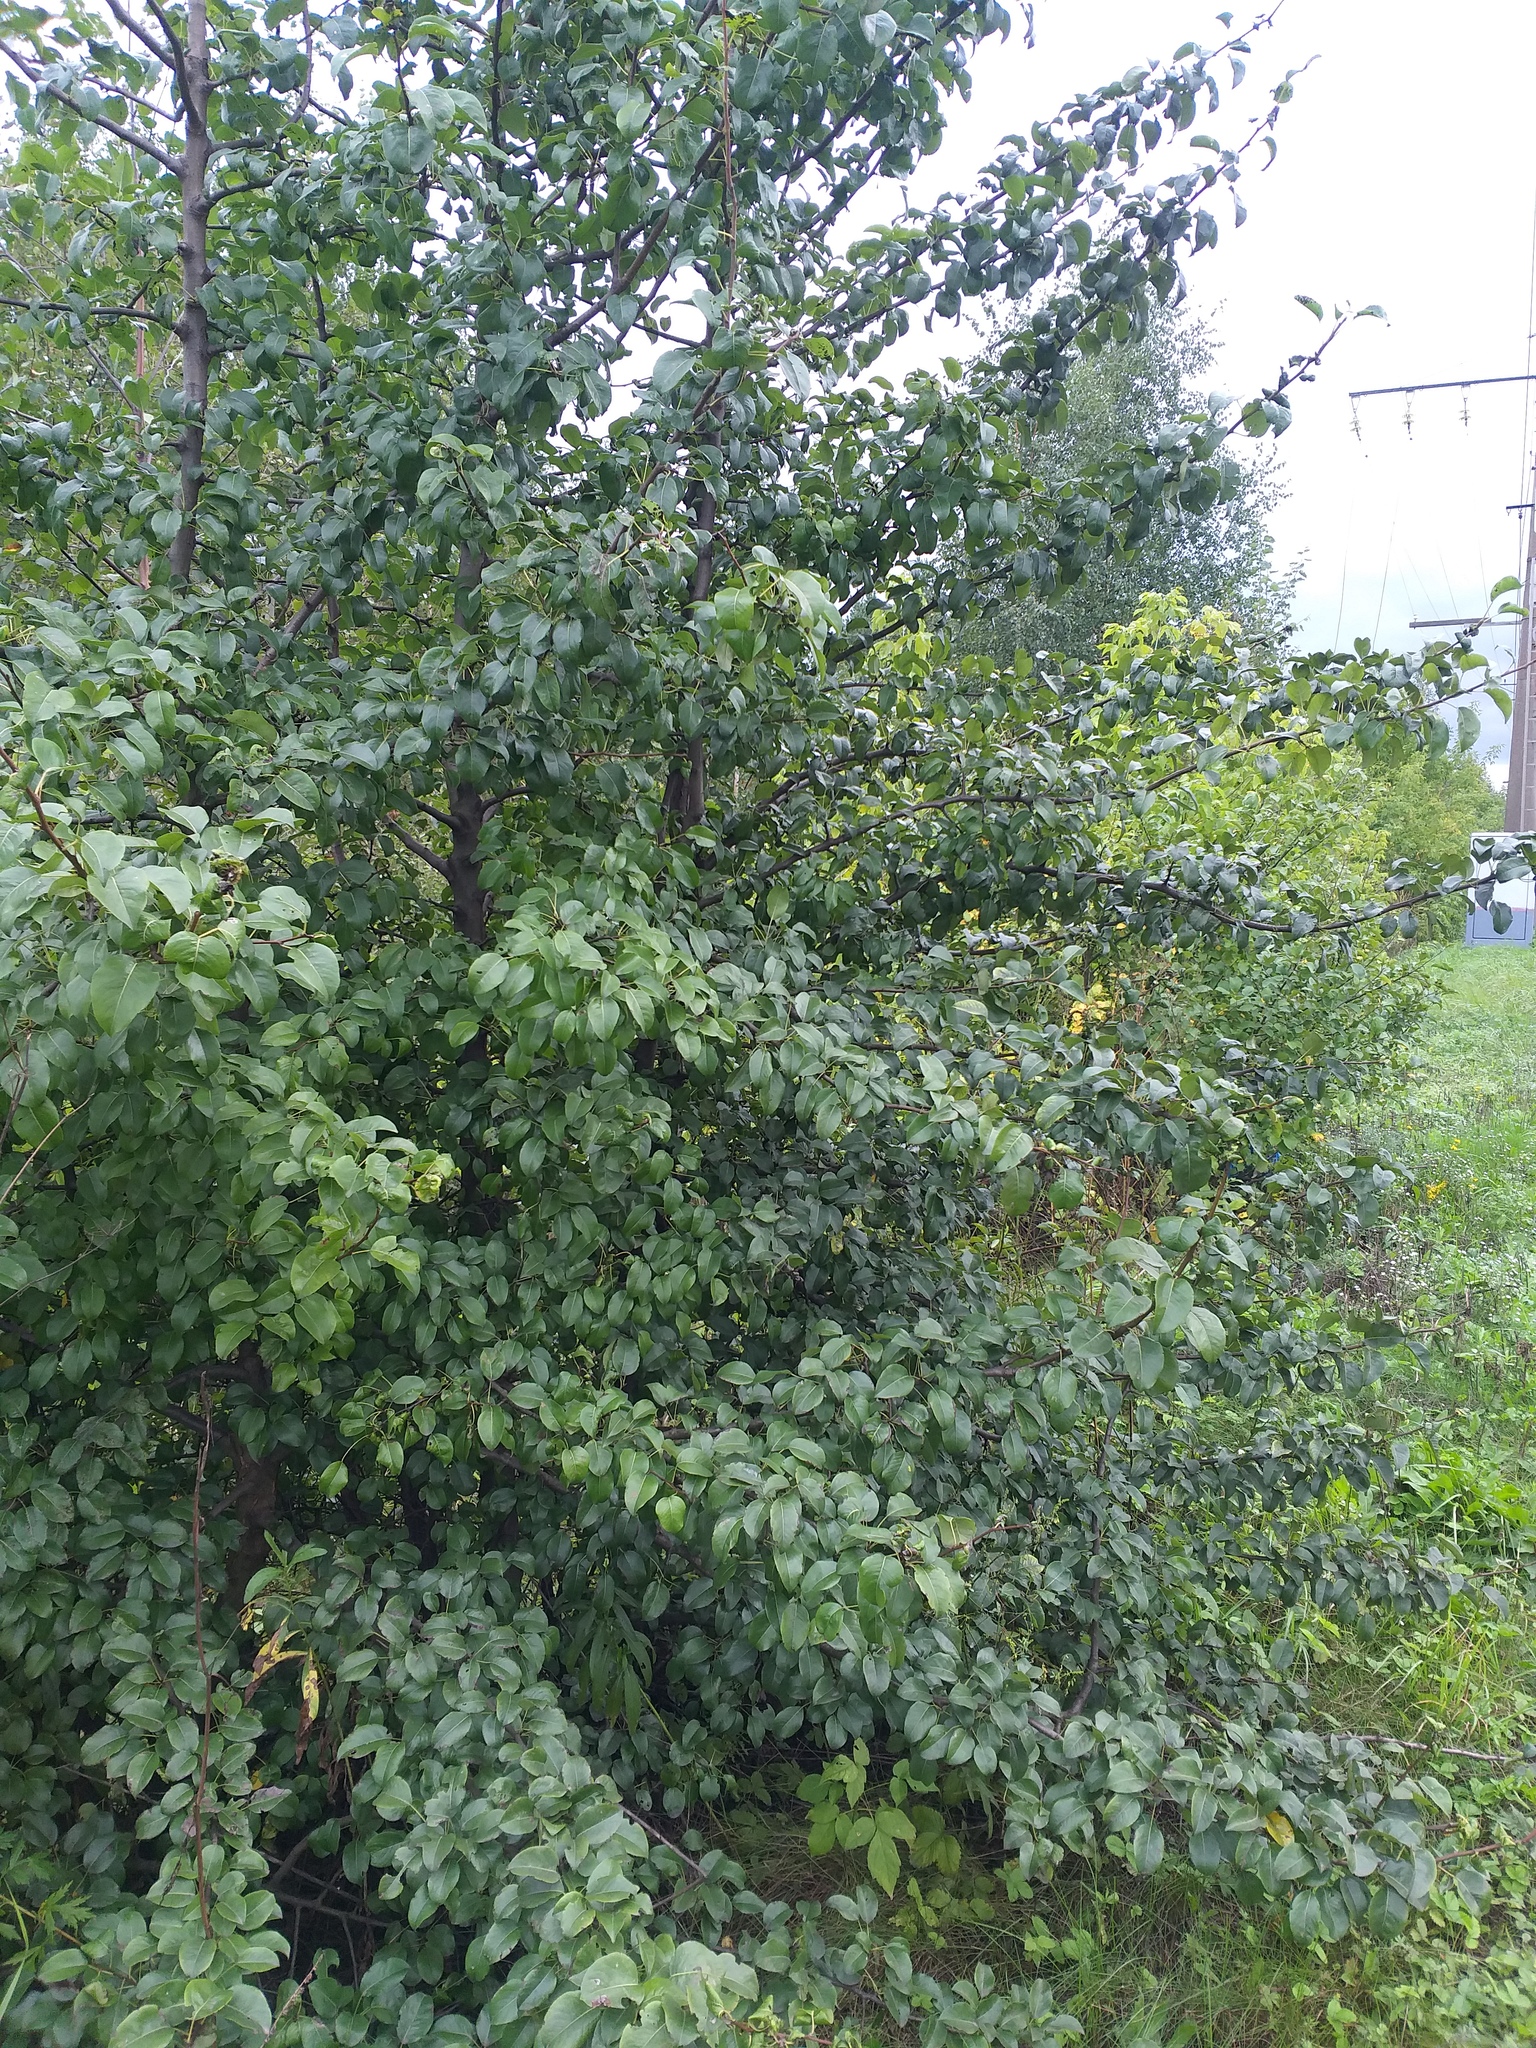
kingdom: Plantae
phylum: Tracheophyta
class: Magnoliopsida
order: Rosales
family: Rosaceae
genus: Pyrus
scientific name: Pyrus communis
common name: Pear
